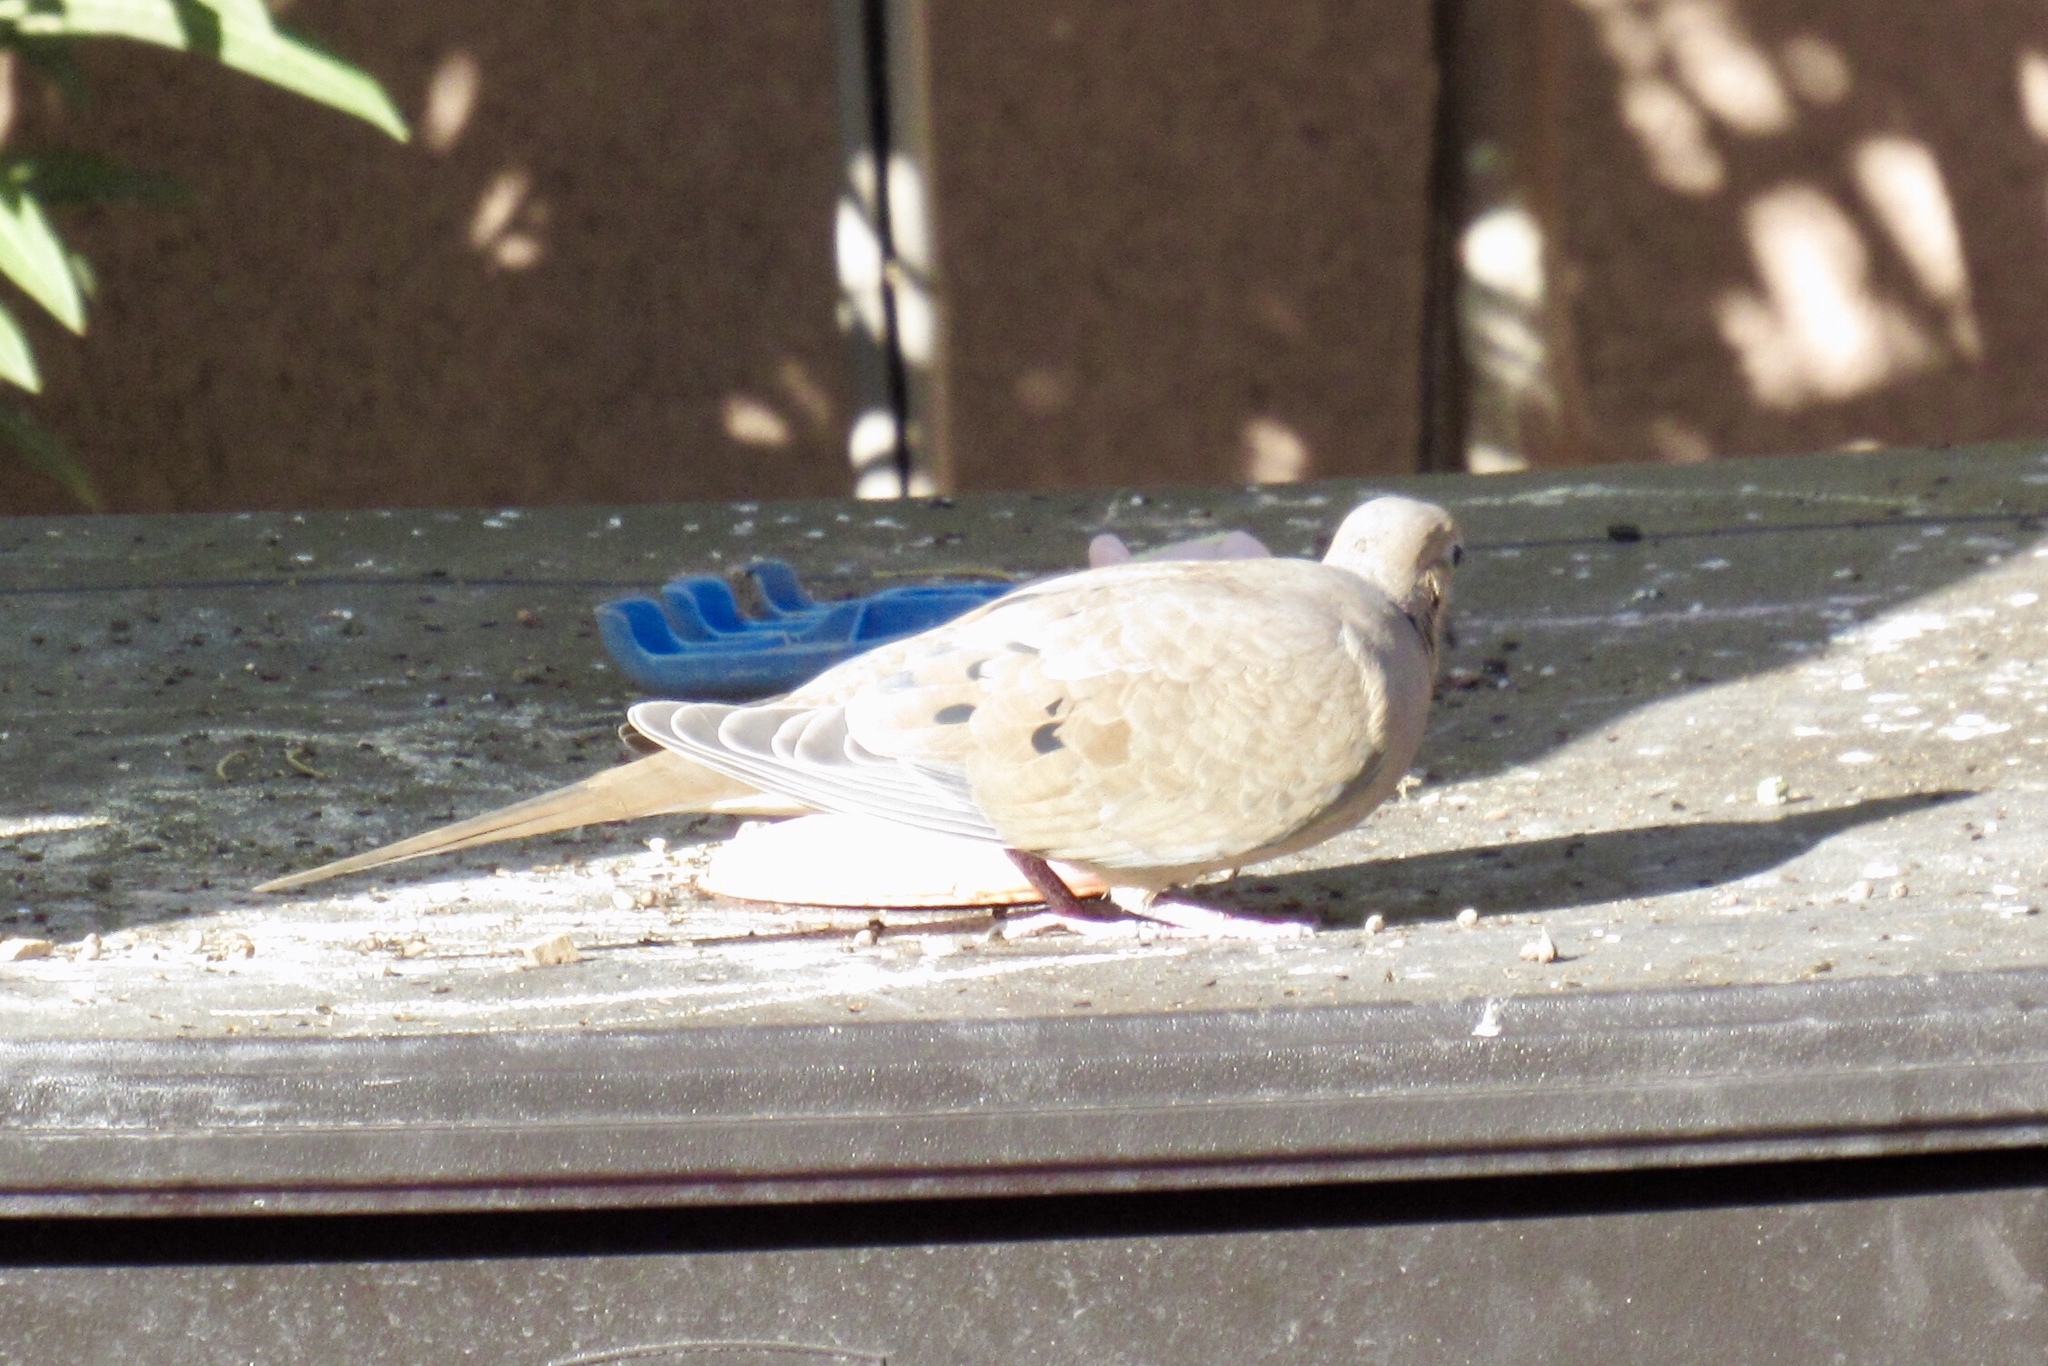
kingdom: Animalia
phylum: Chordata
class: Aves
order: Columbiformes
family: Columbidae
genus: Zenaida
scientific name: Zenaida macroura
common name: Mourning dove
